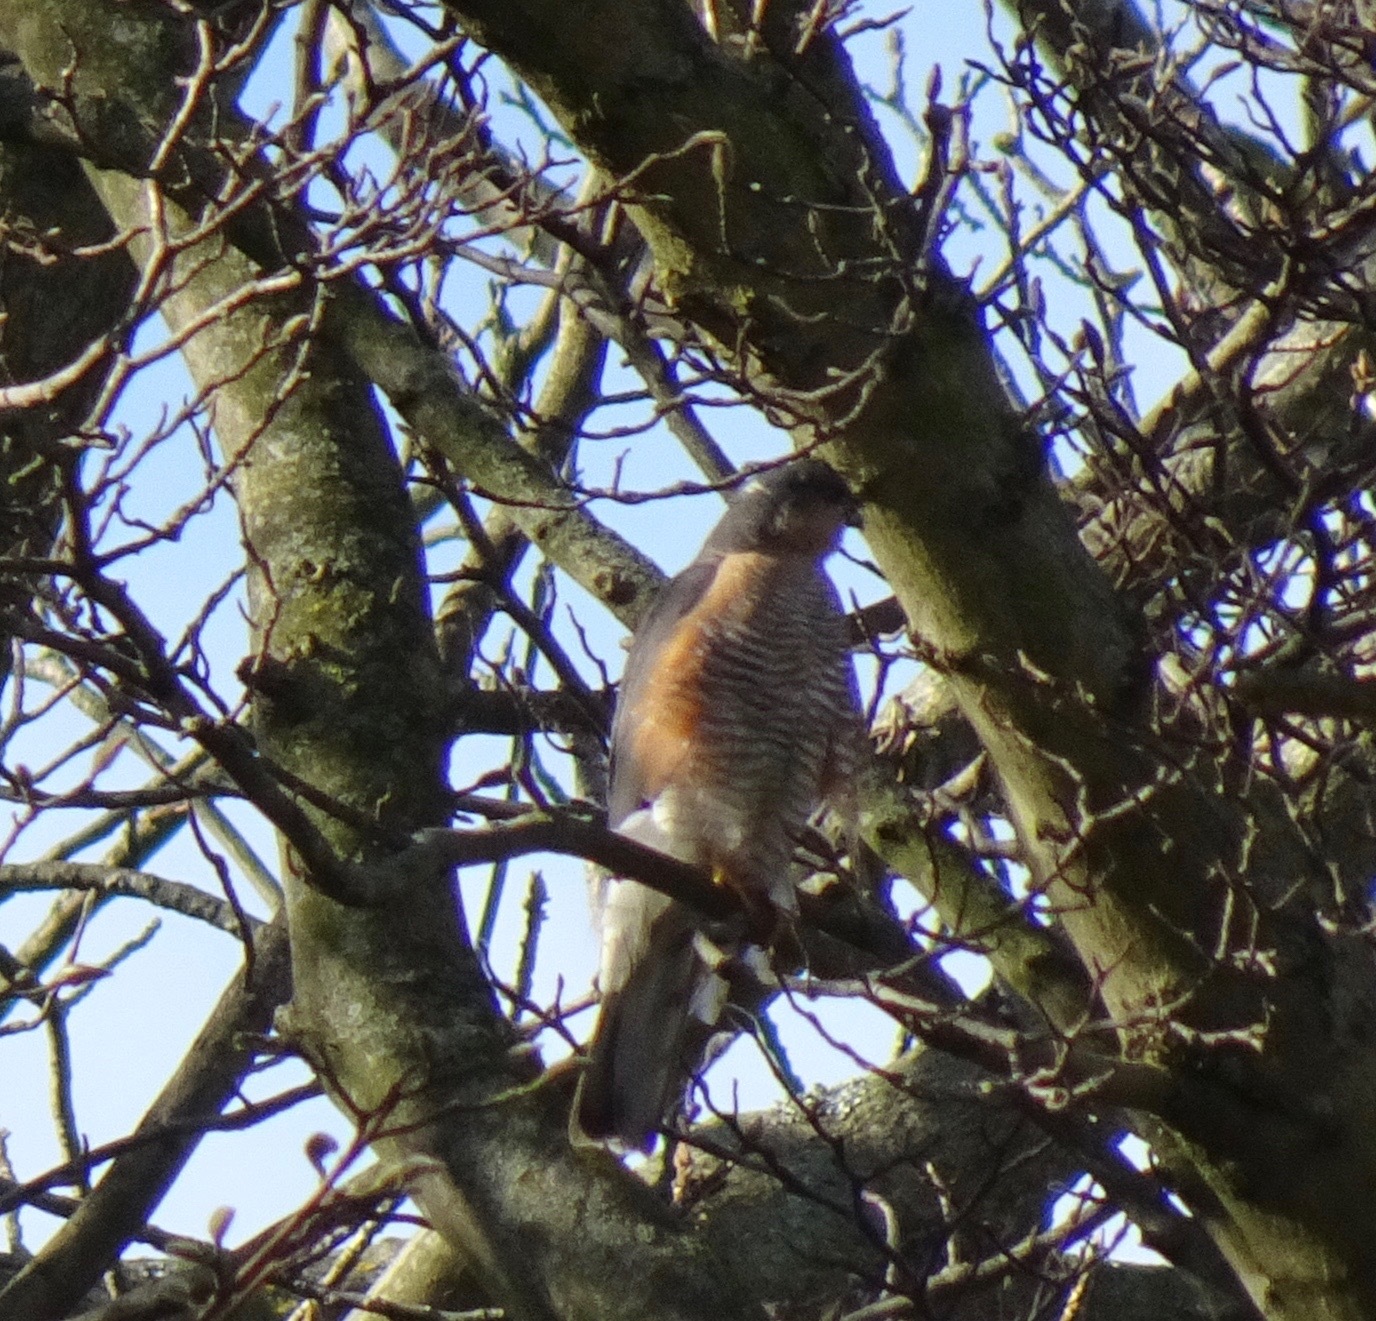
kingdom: Animalia
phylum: Chordata
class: Aves
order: Accipitriformes
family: Accipitridae
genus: Accipiter
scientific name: Accipiter nisus
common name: Eurasian sparrowhawk
